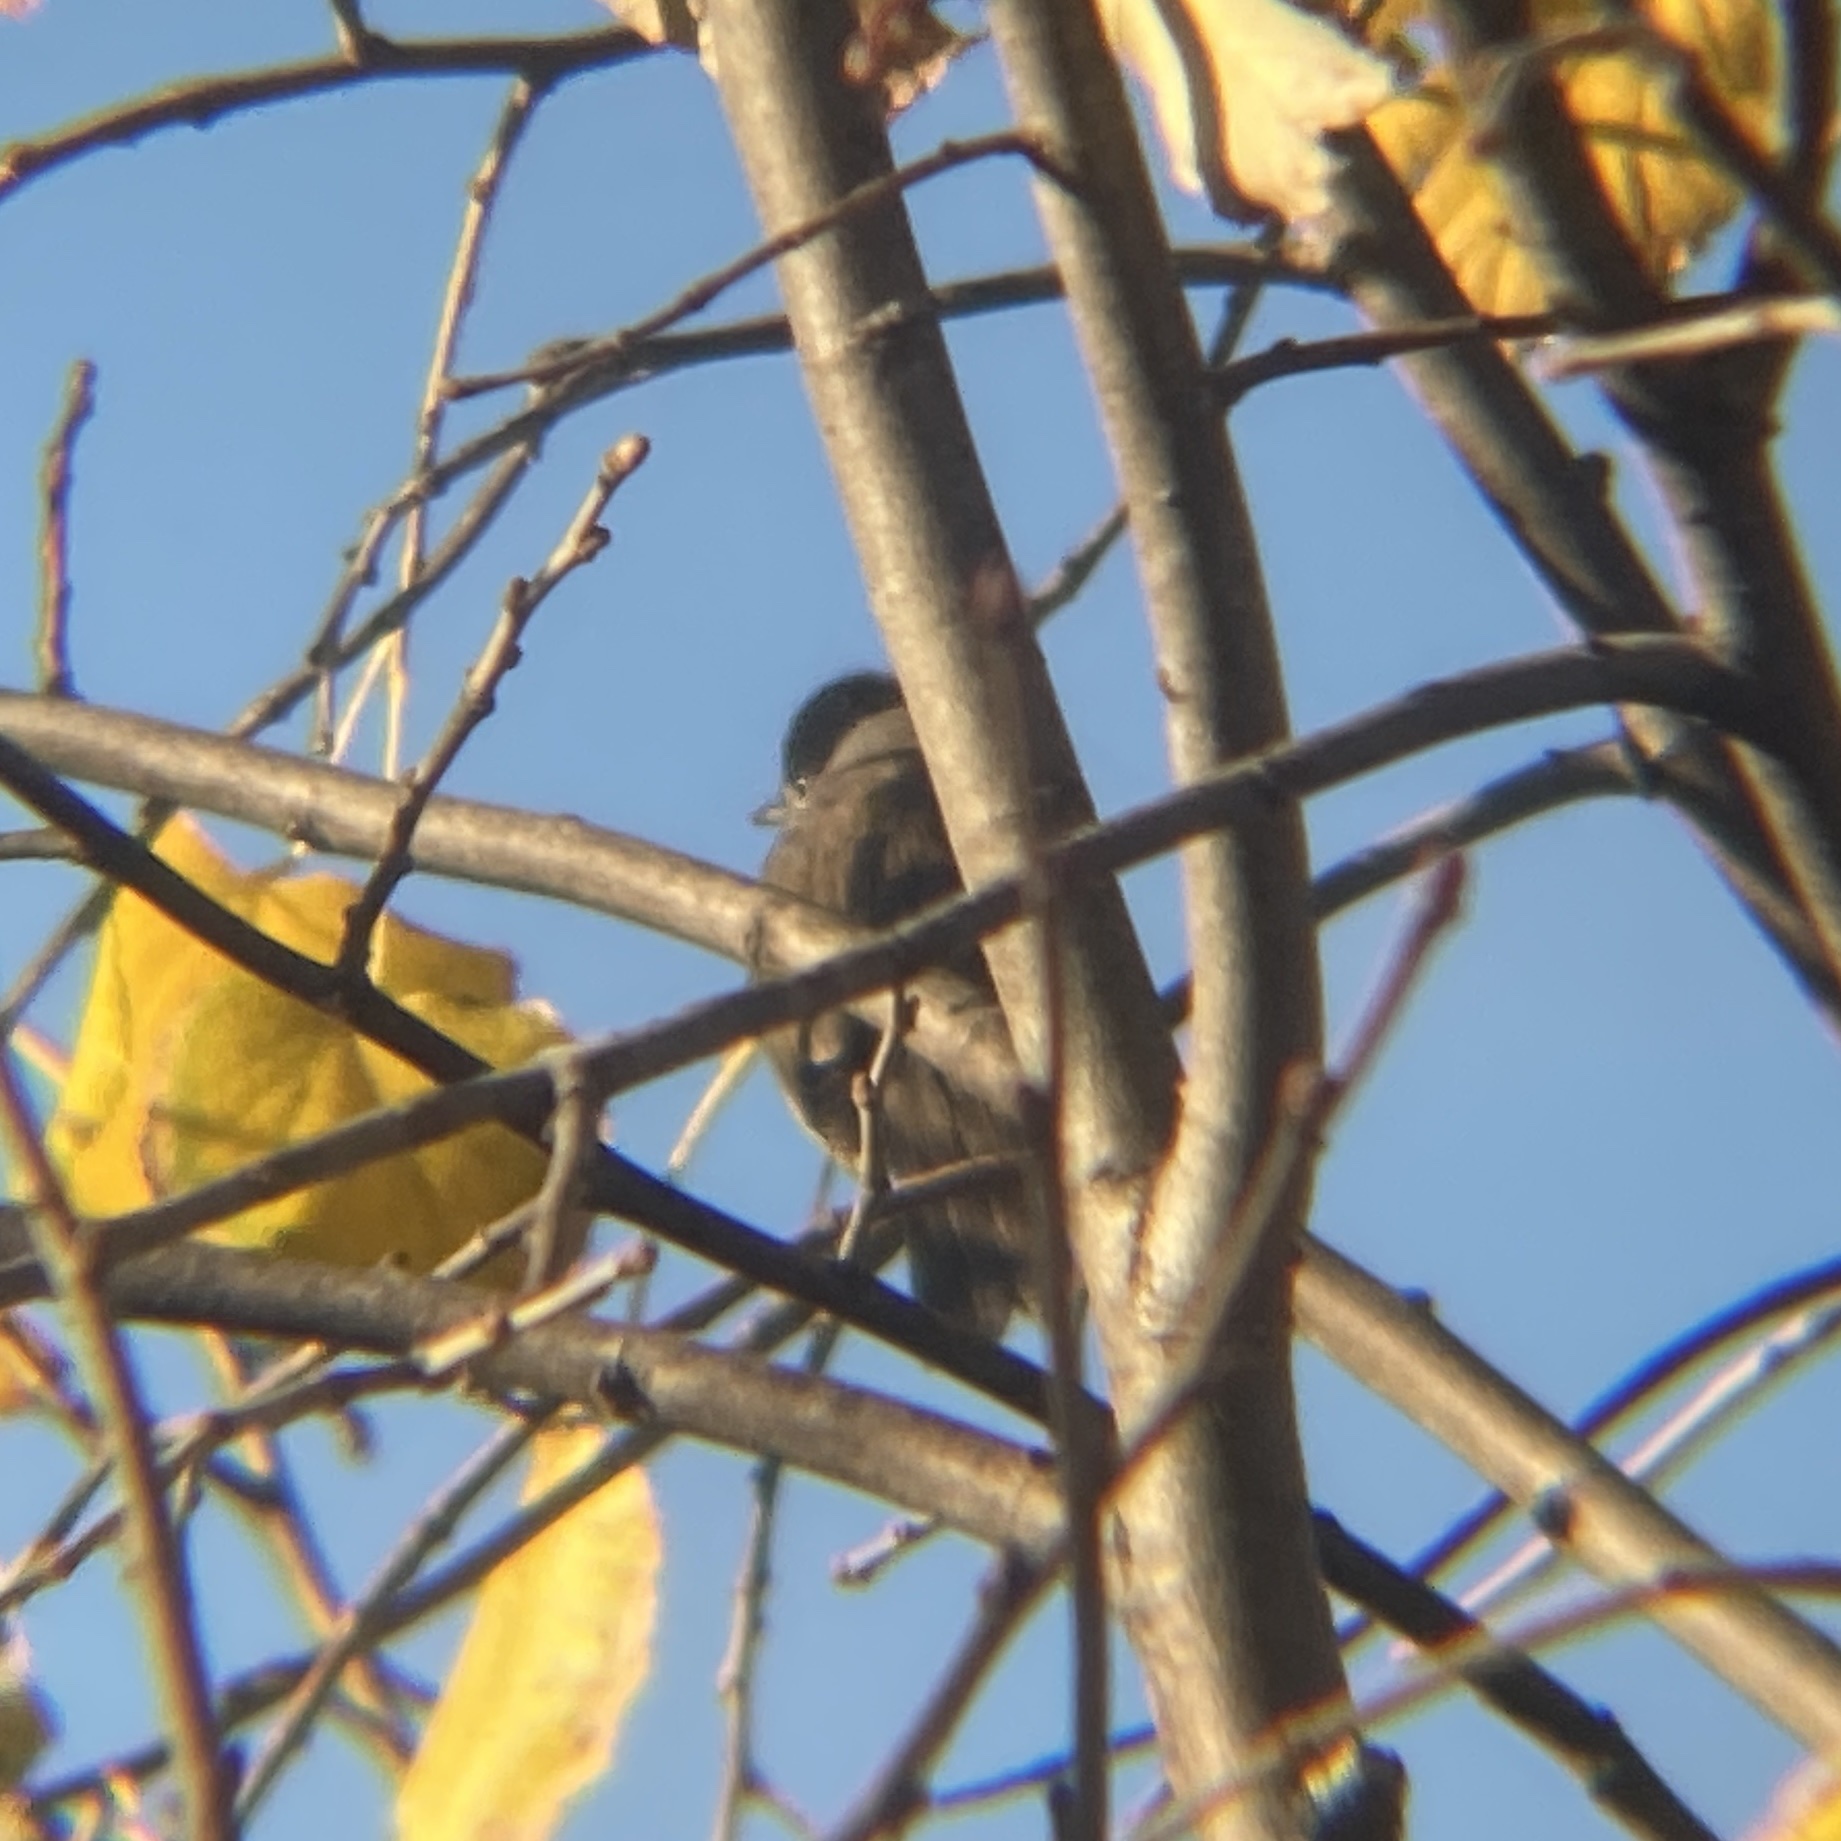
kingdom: Animalia
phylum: Chordata
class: Aves
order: Passeriformes
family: Sylviidae
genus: Sylvia
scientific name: Sylvia atricapilla
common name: Eurasian blackcap
